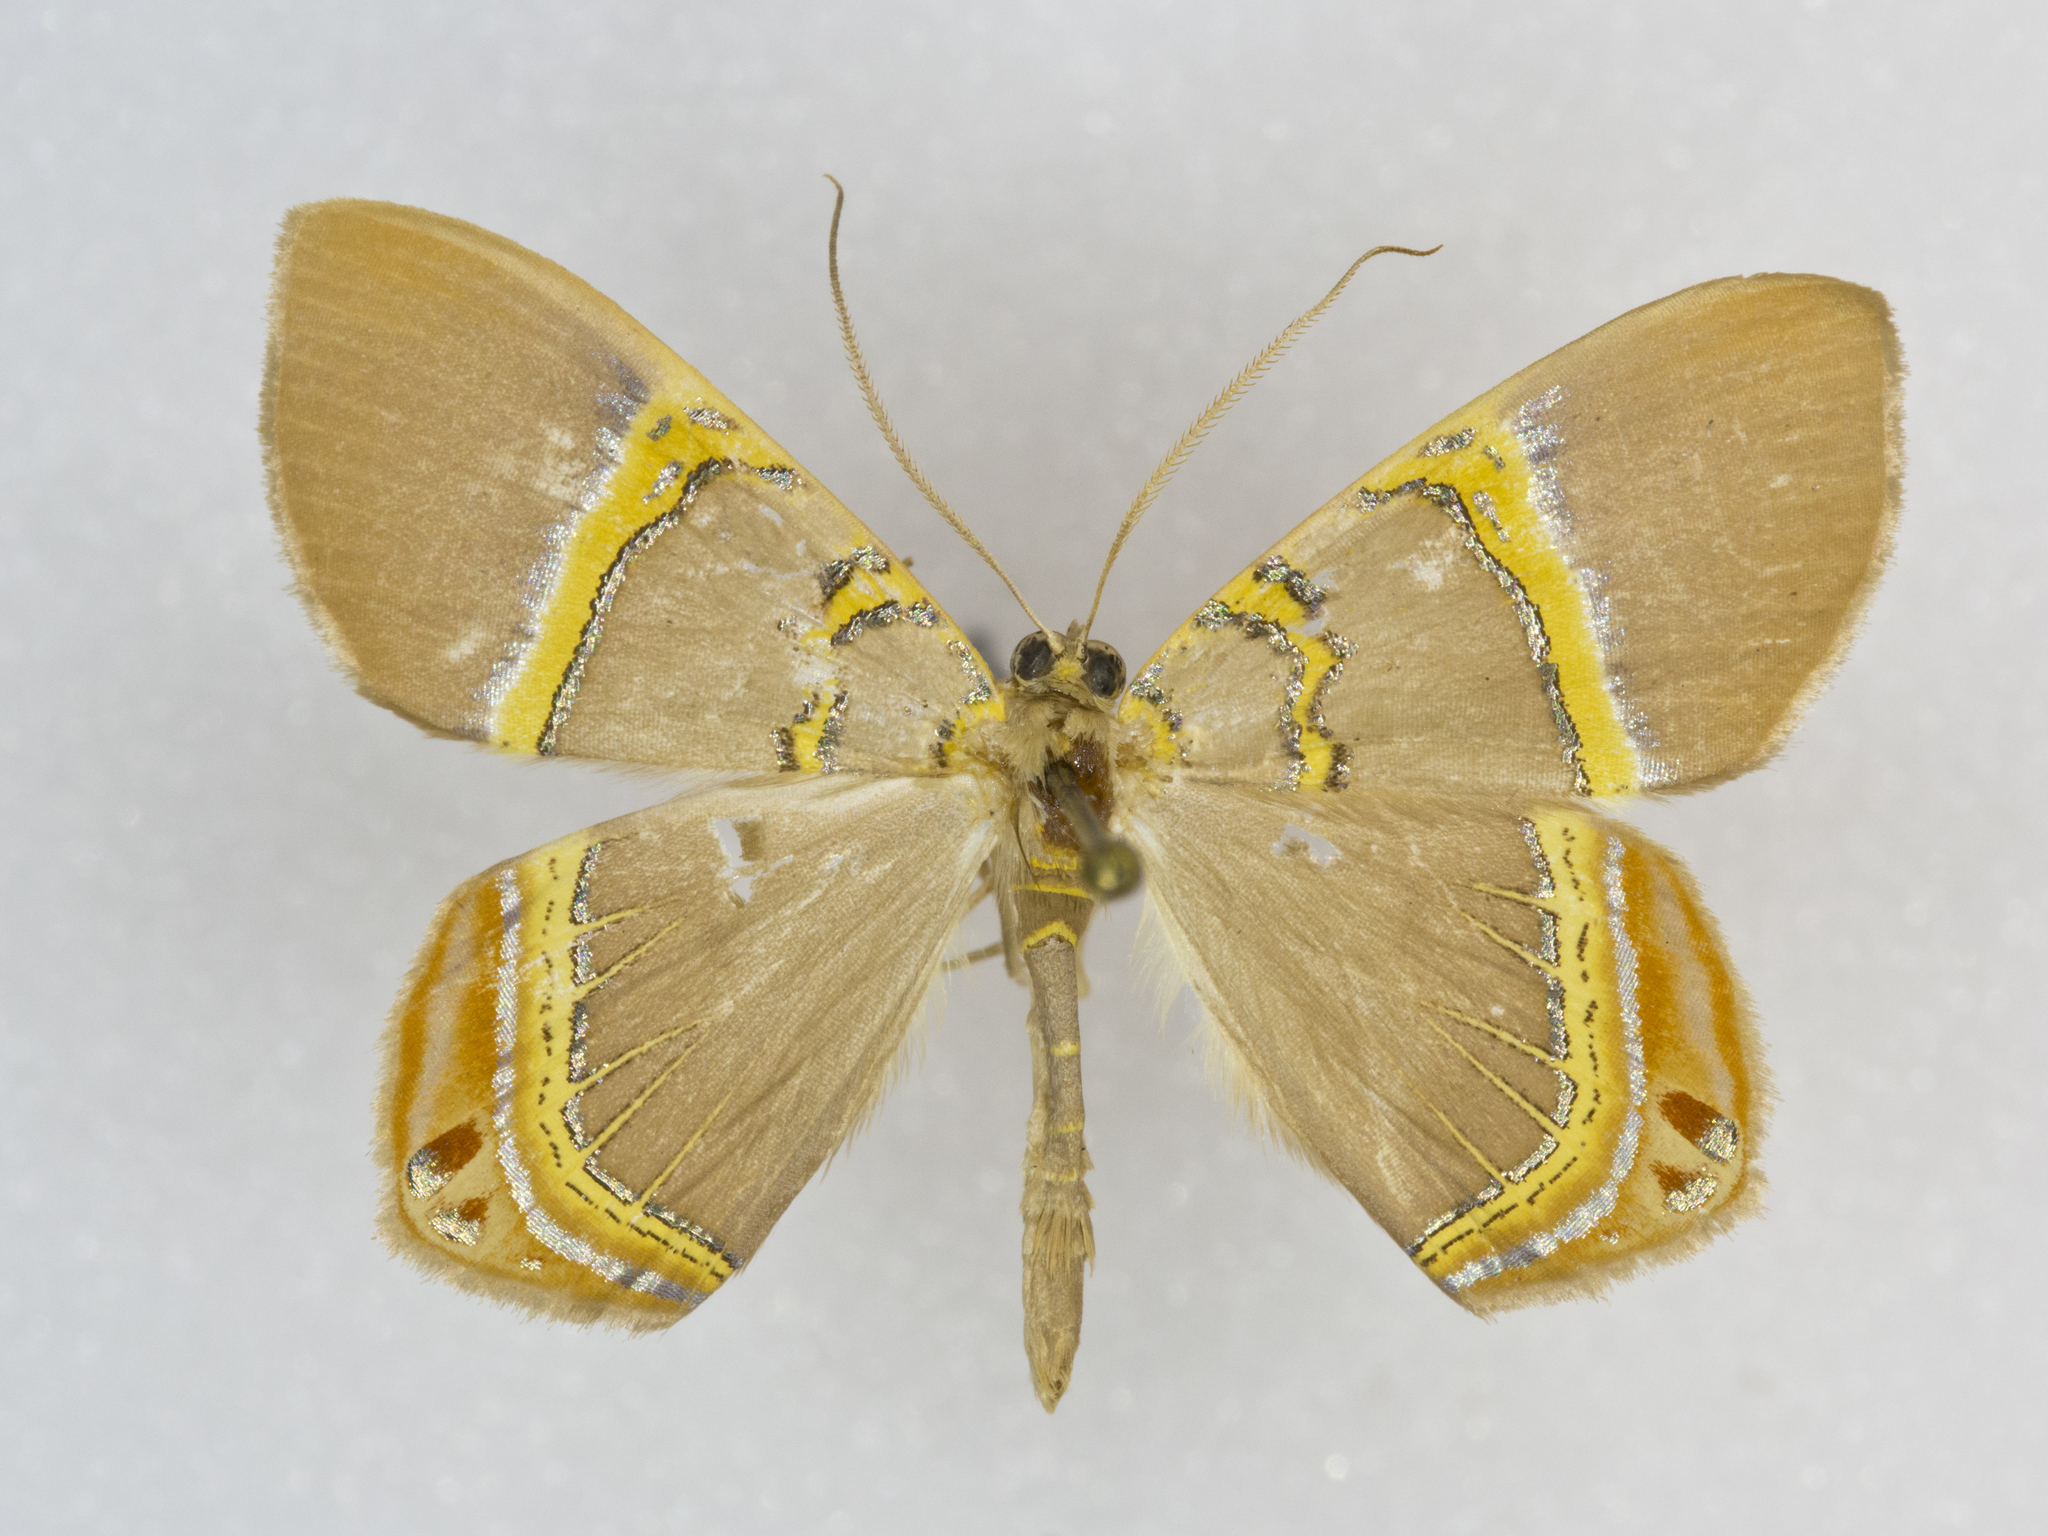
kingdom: Animalia
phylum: Arthropoda
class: Insecta
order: Lepidoptera
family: Geometridae
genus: Phrygionis
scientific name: Phrygionis paradoxata
